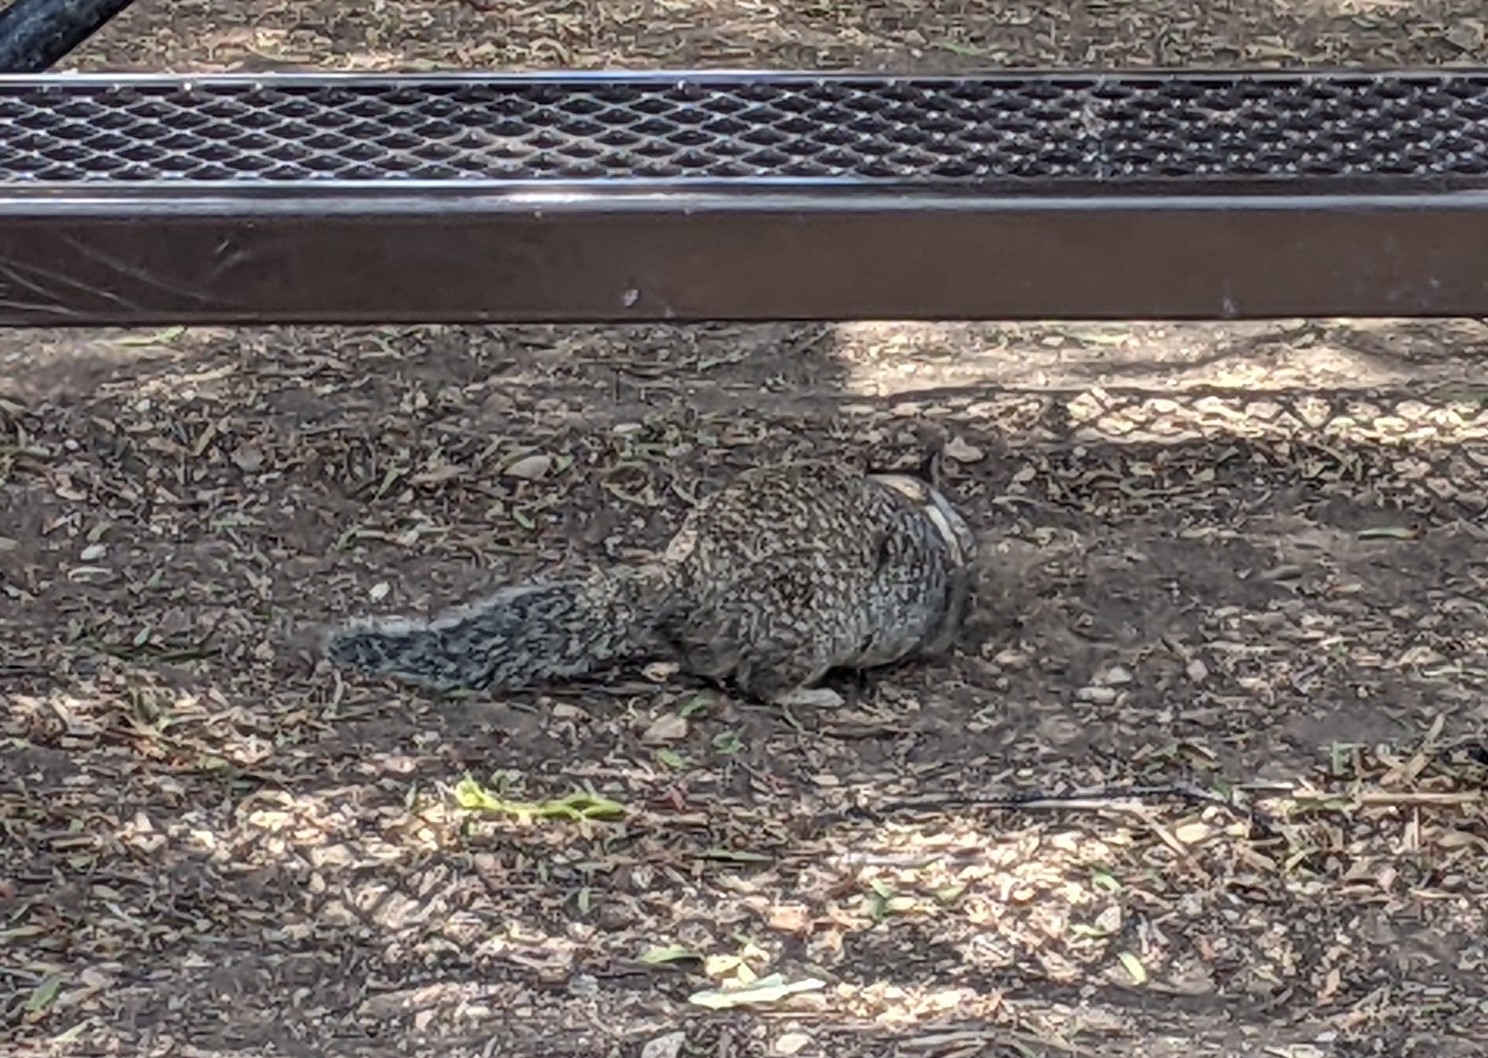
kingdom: Animalia
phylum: Chordata
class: Mammalia
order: Rodentia
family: Sciuridae
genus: Otospermophilus
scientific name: Otospermophilus beecheyi
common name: California ground squirrel
